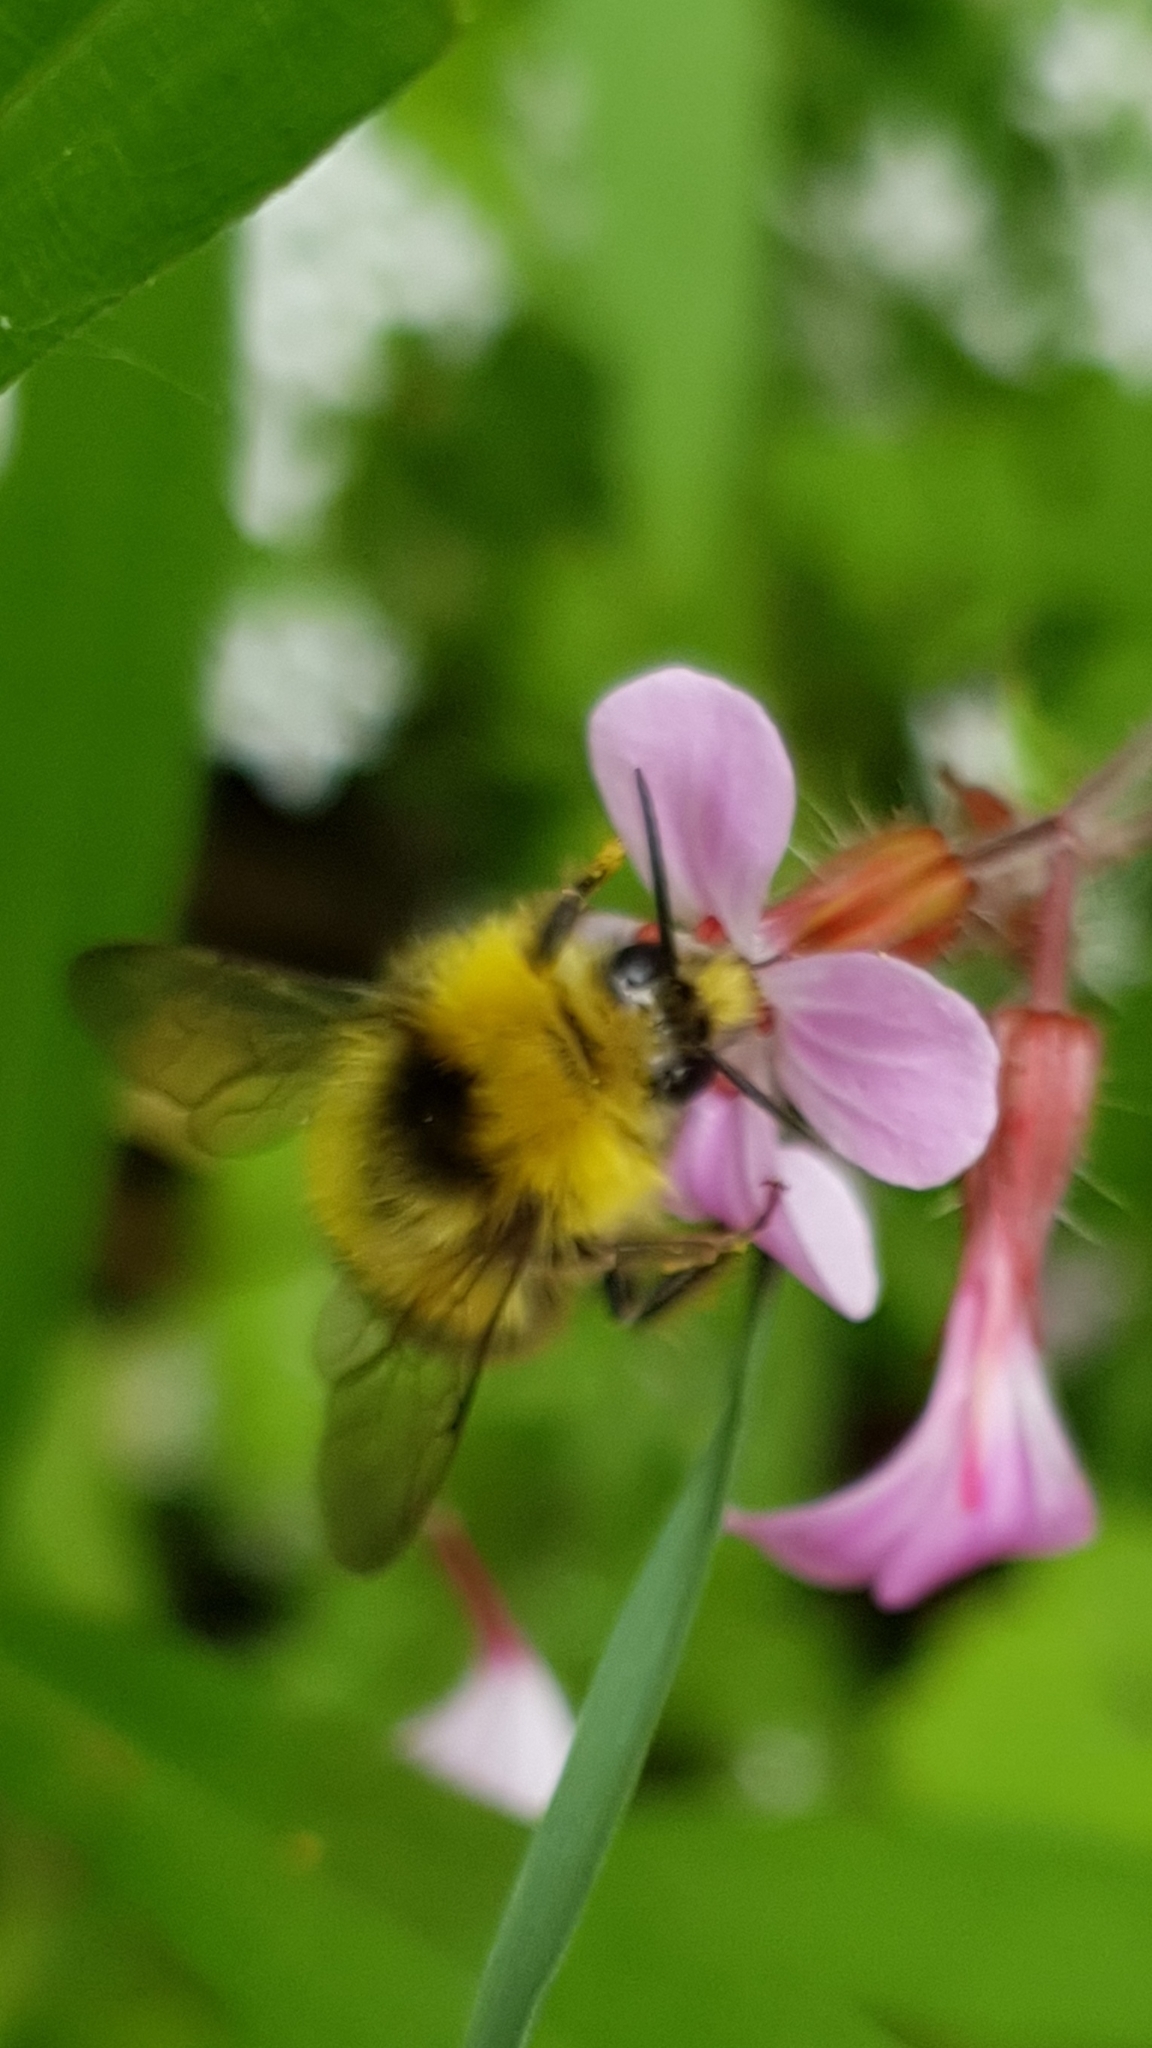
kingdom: Animalia
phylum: Arthropoda
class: Insecta
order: Hymenoptera
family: Apidae
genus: Bombus
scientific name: Bombus pratorum
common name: Early humble-bee
